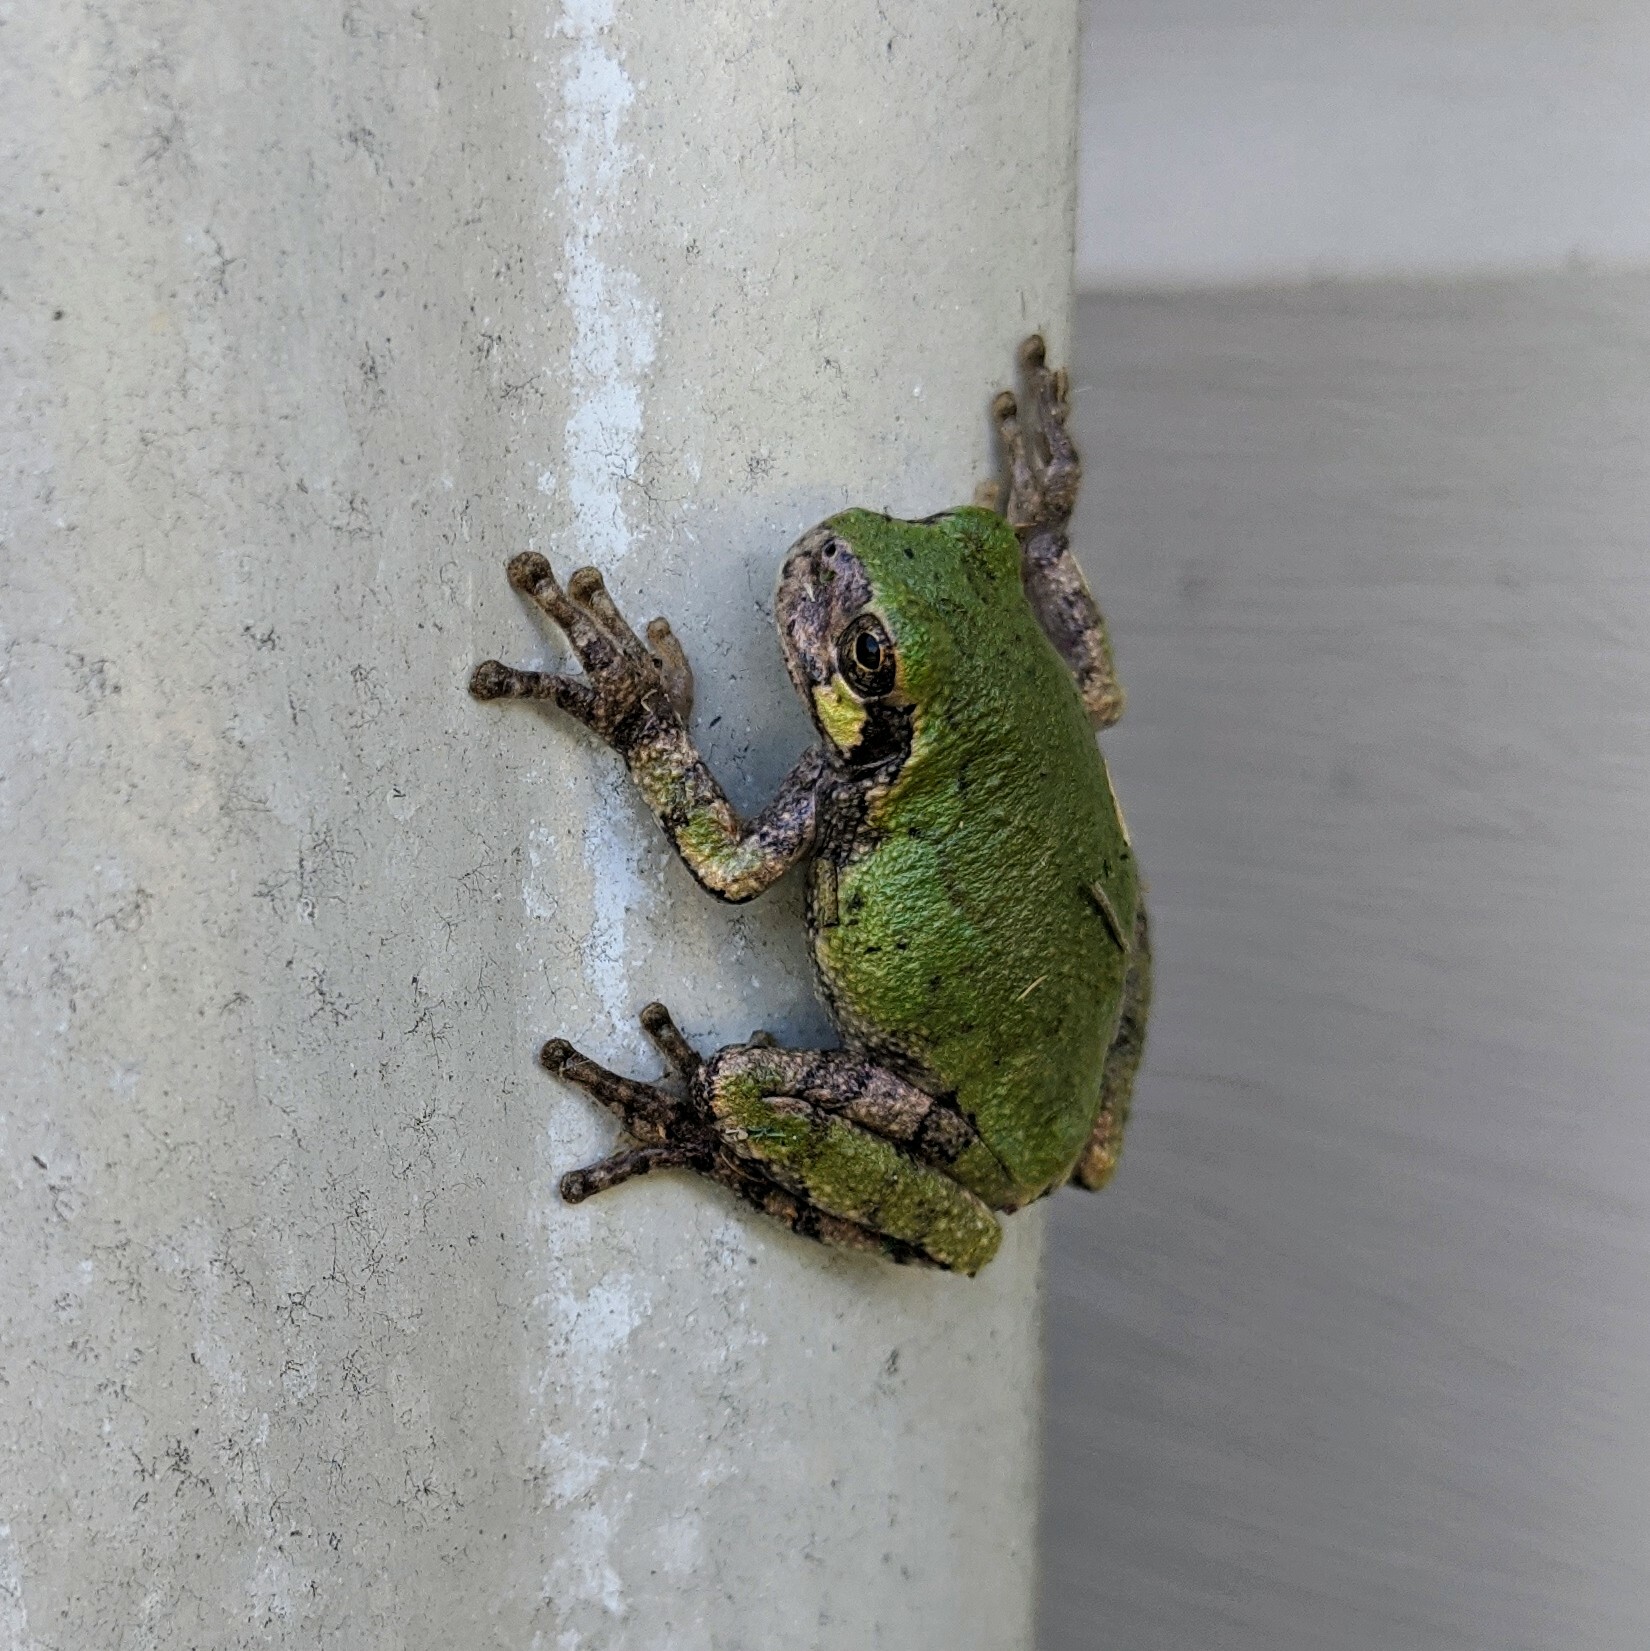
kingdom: Animalia
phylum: Chordata
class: Amphibia
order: Anura
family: Hylidae
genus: Hyla
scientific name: Hyla
